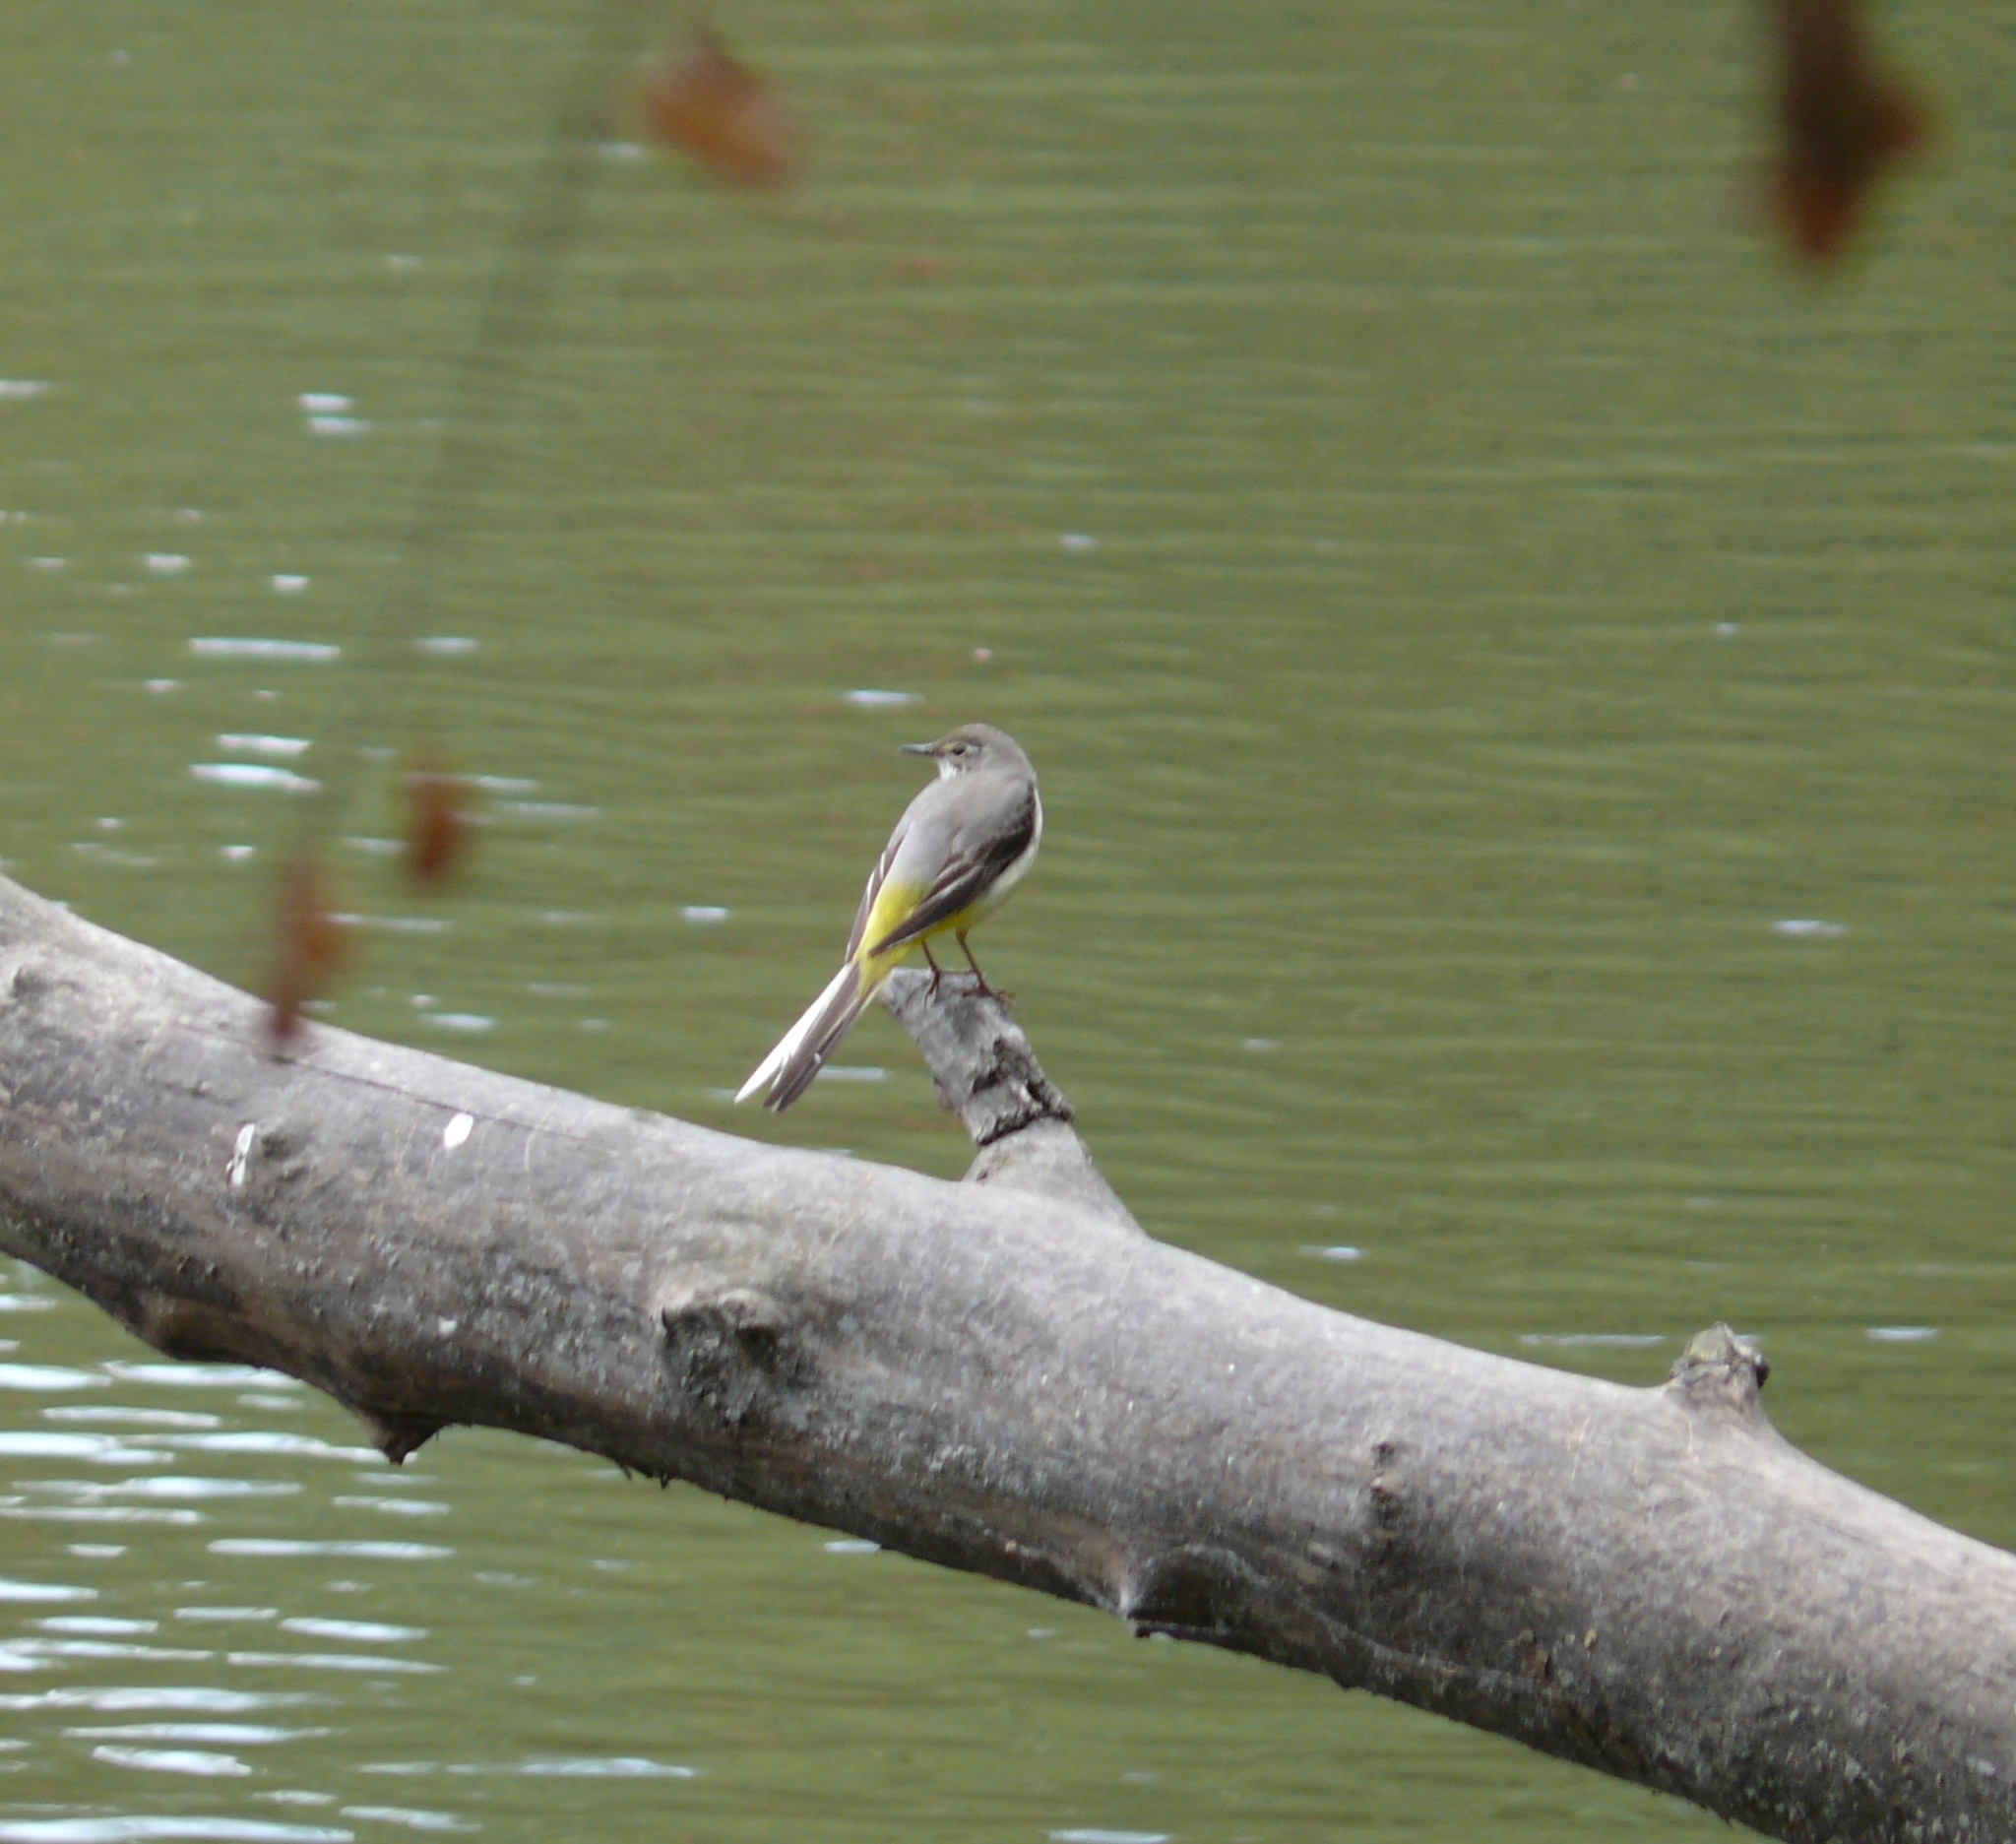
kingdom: Animalia
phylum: Chordata
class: Aves
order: Passeriformes
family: Motacillidae
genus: Motacilla
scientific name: Motacilla cinerea
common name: Grey wagtail
